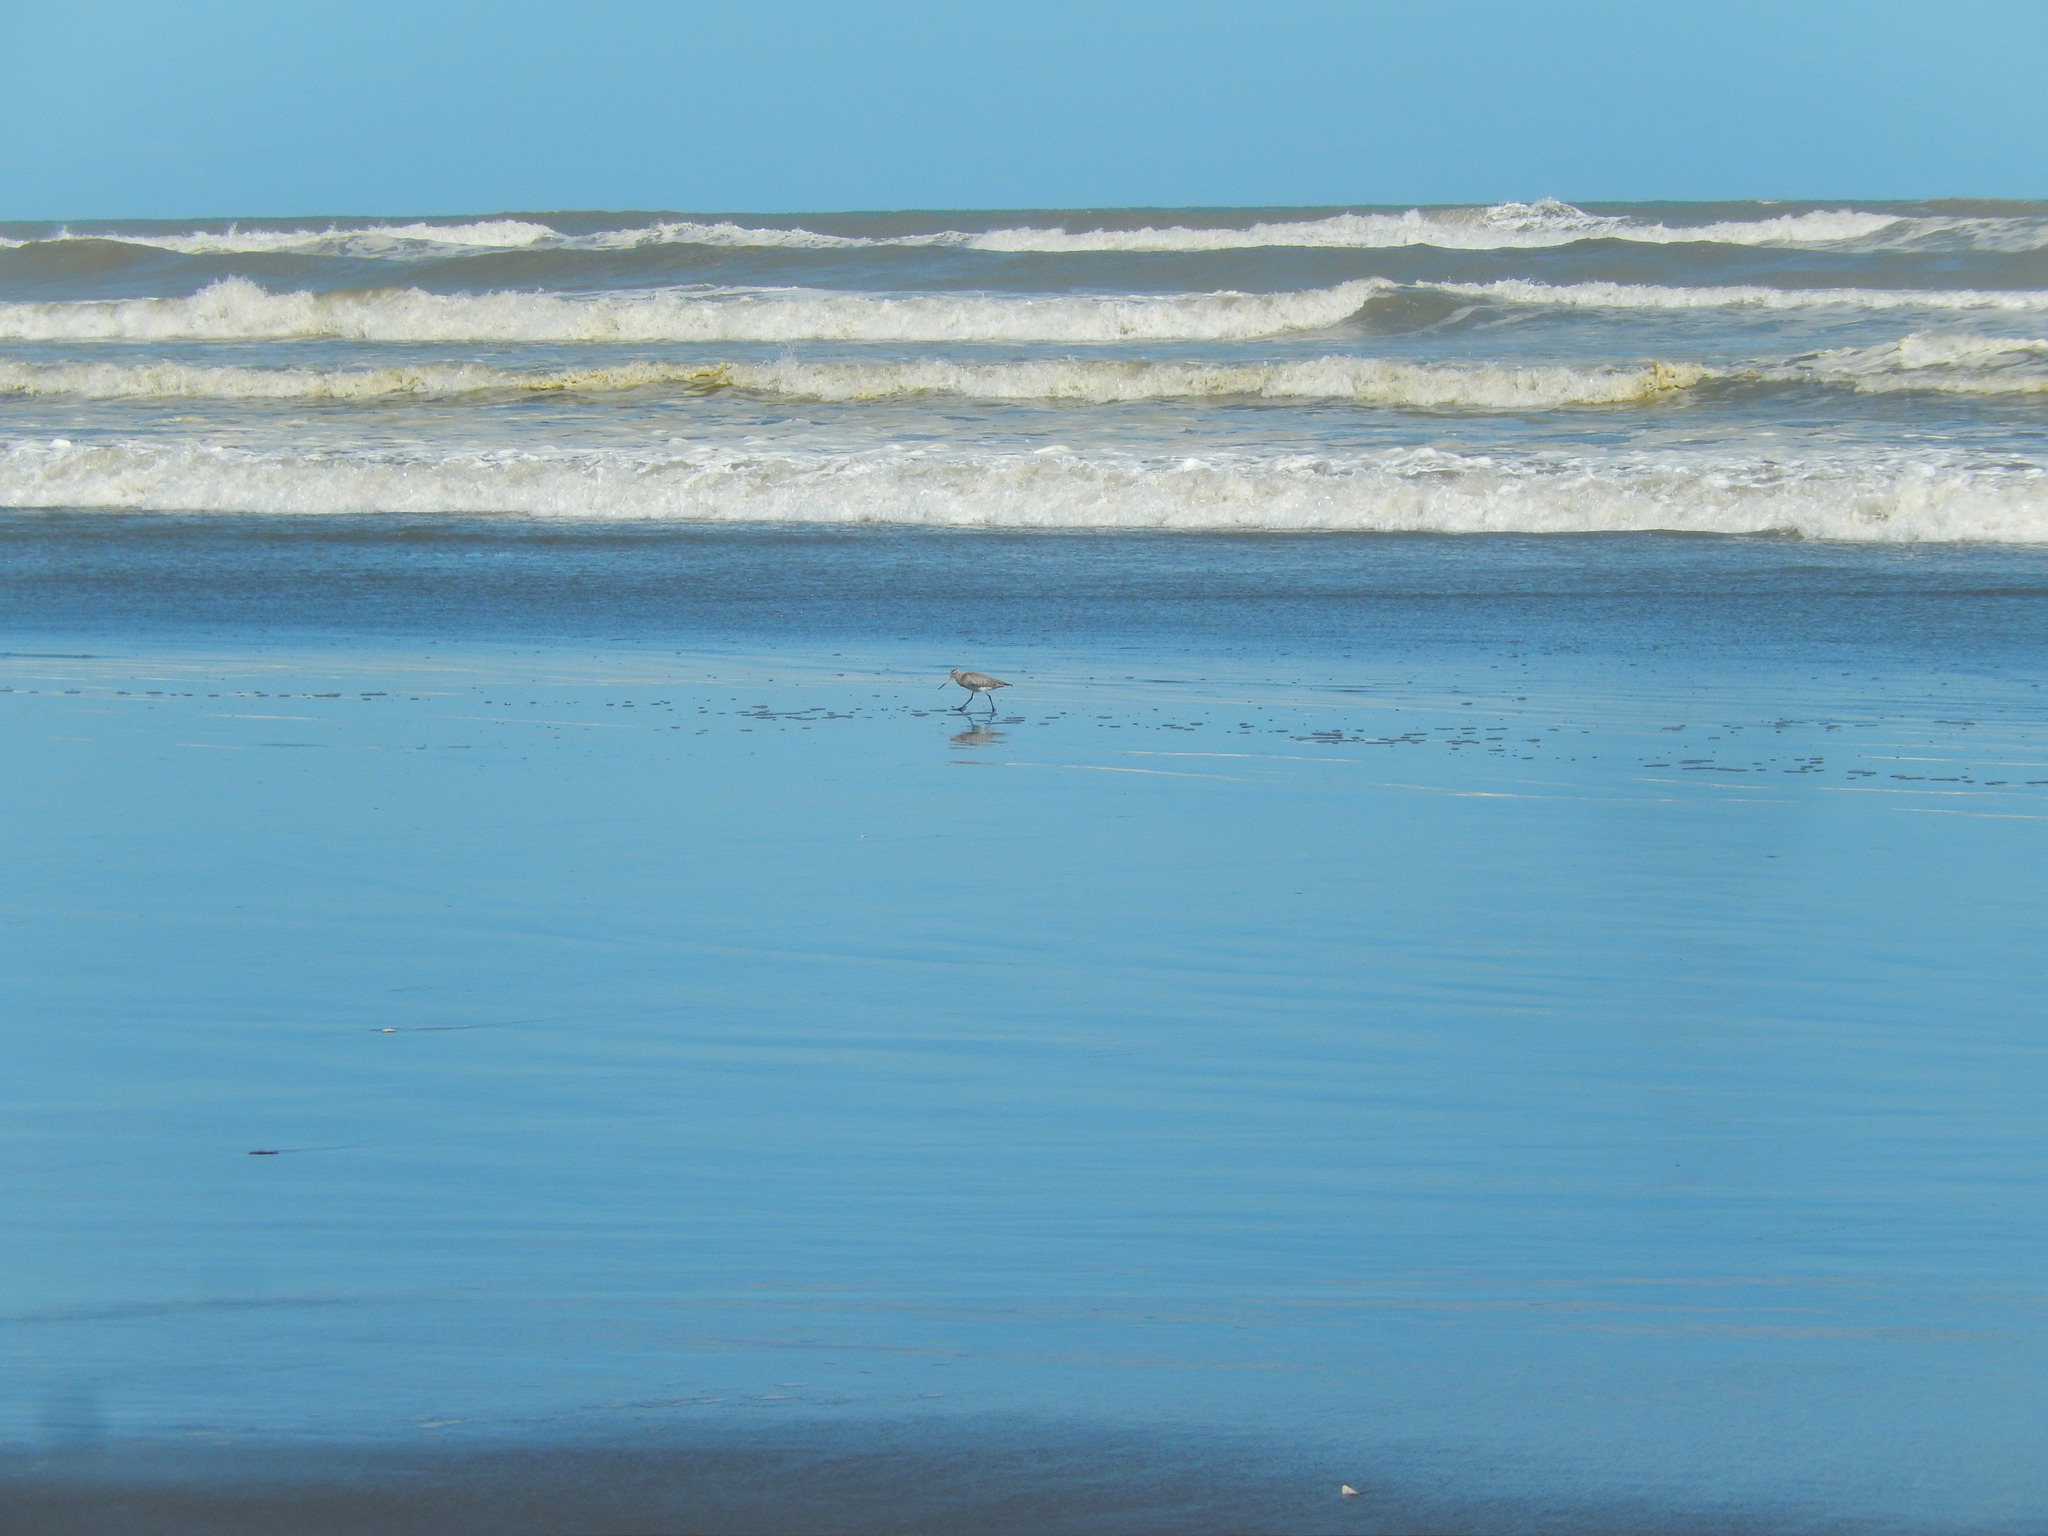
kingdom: Animalia
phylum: Chordata
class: Aves
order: Charadriiformes
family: Scolopacidae
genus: Limosa
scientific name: Limosa lapponica
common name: Bar-tailed godwit
